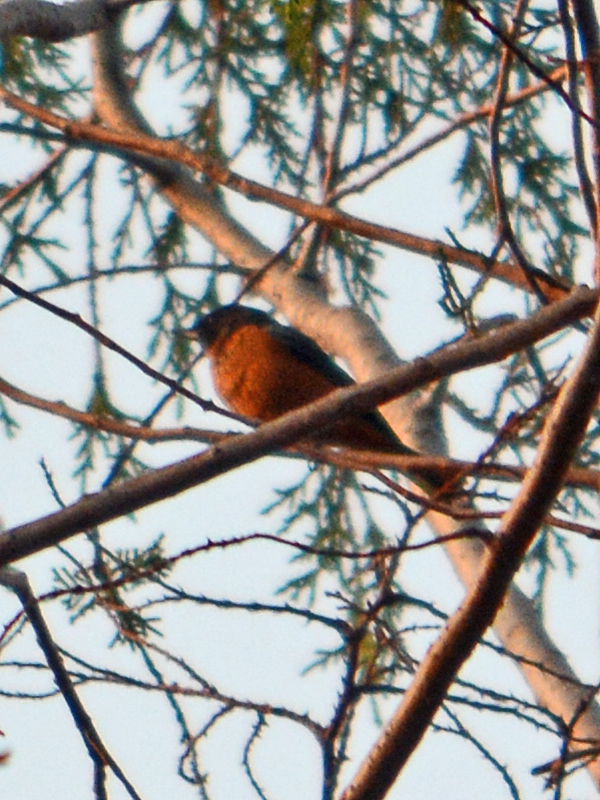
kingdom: Animalia
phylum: Chordata
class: Aves
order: Passeriformes
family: Thraupidae
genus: Diglossa
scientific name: Diglossa baritula
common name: Cinnamon-bellied flowerpiercer
